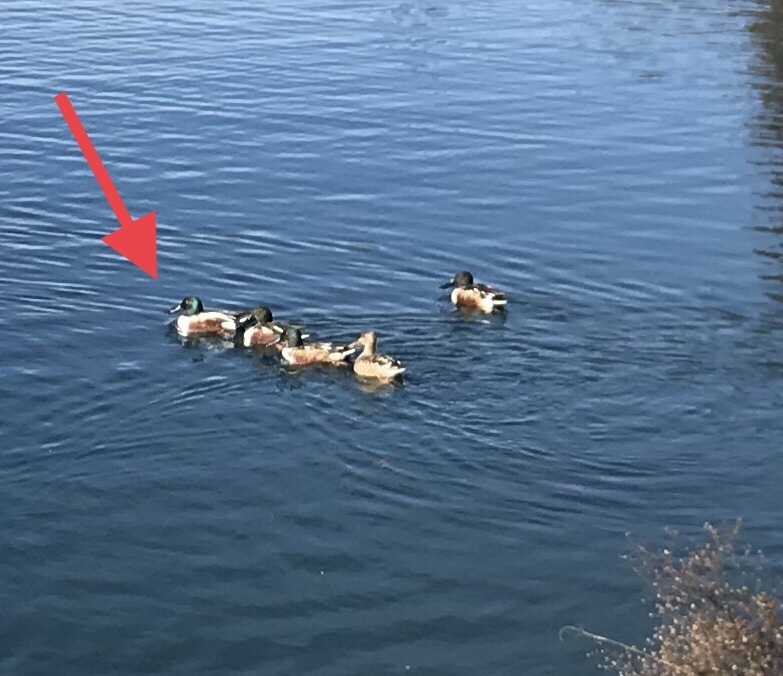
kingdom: Animalia
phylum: Chordata
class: Aves
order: Anseriformes
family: Anatidae
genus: Spatula
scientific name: Spatula clypeata
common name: Northern shoveler
